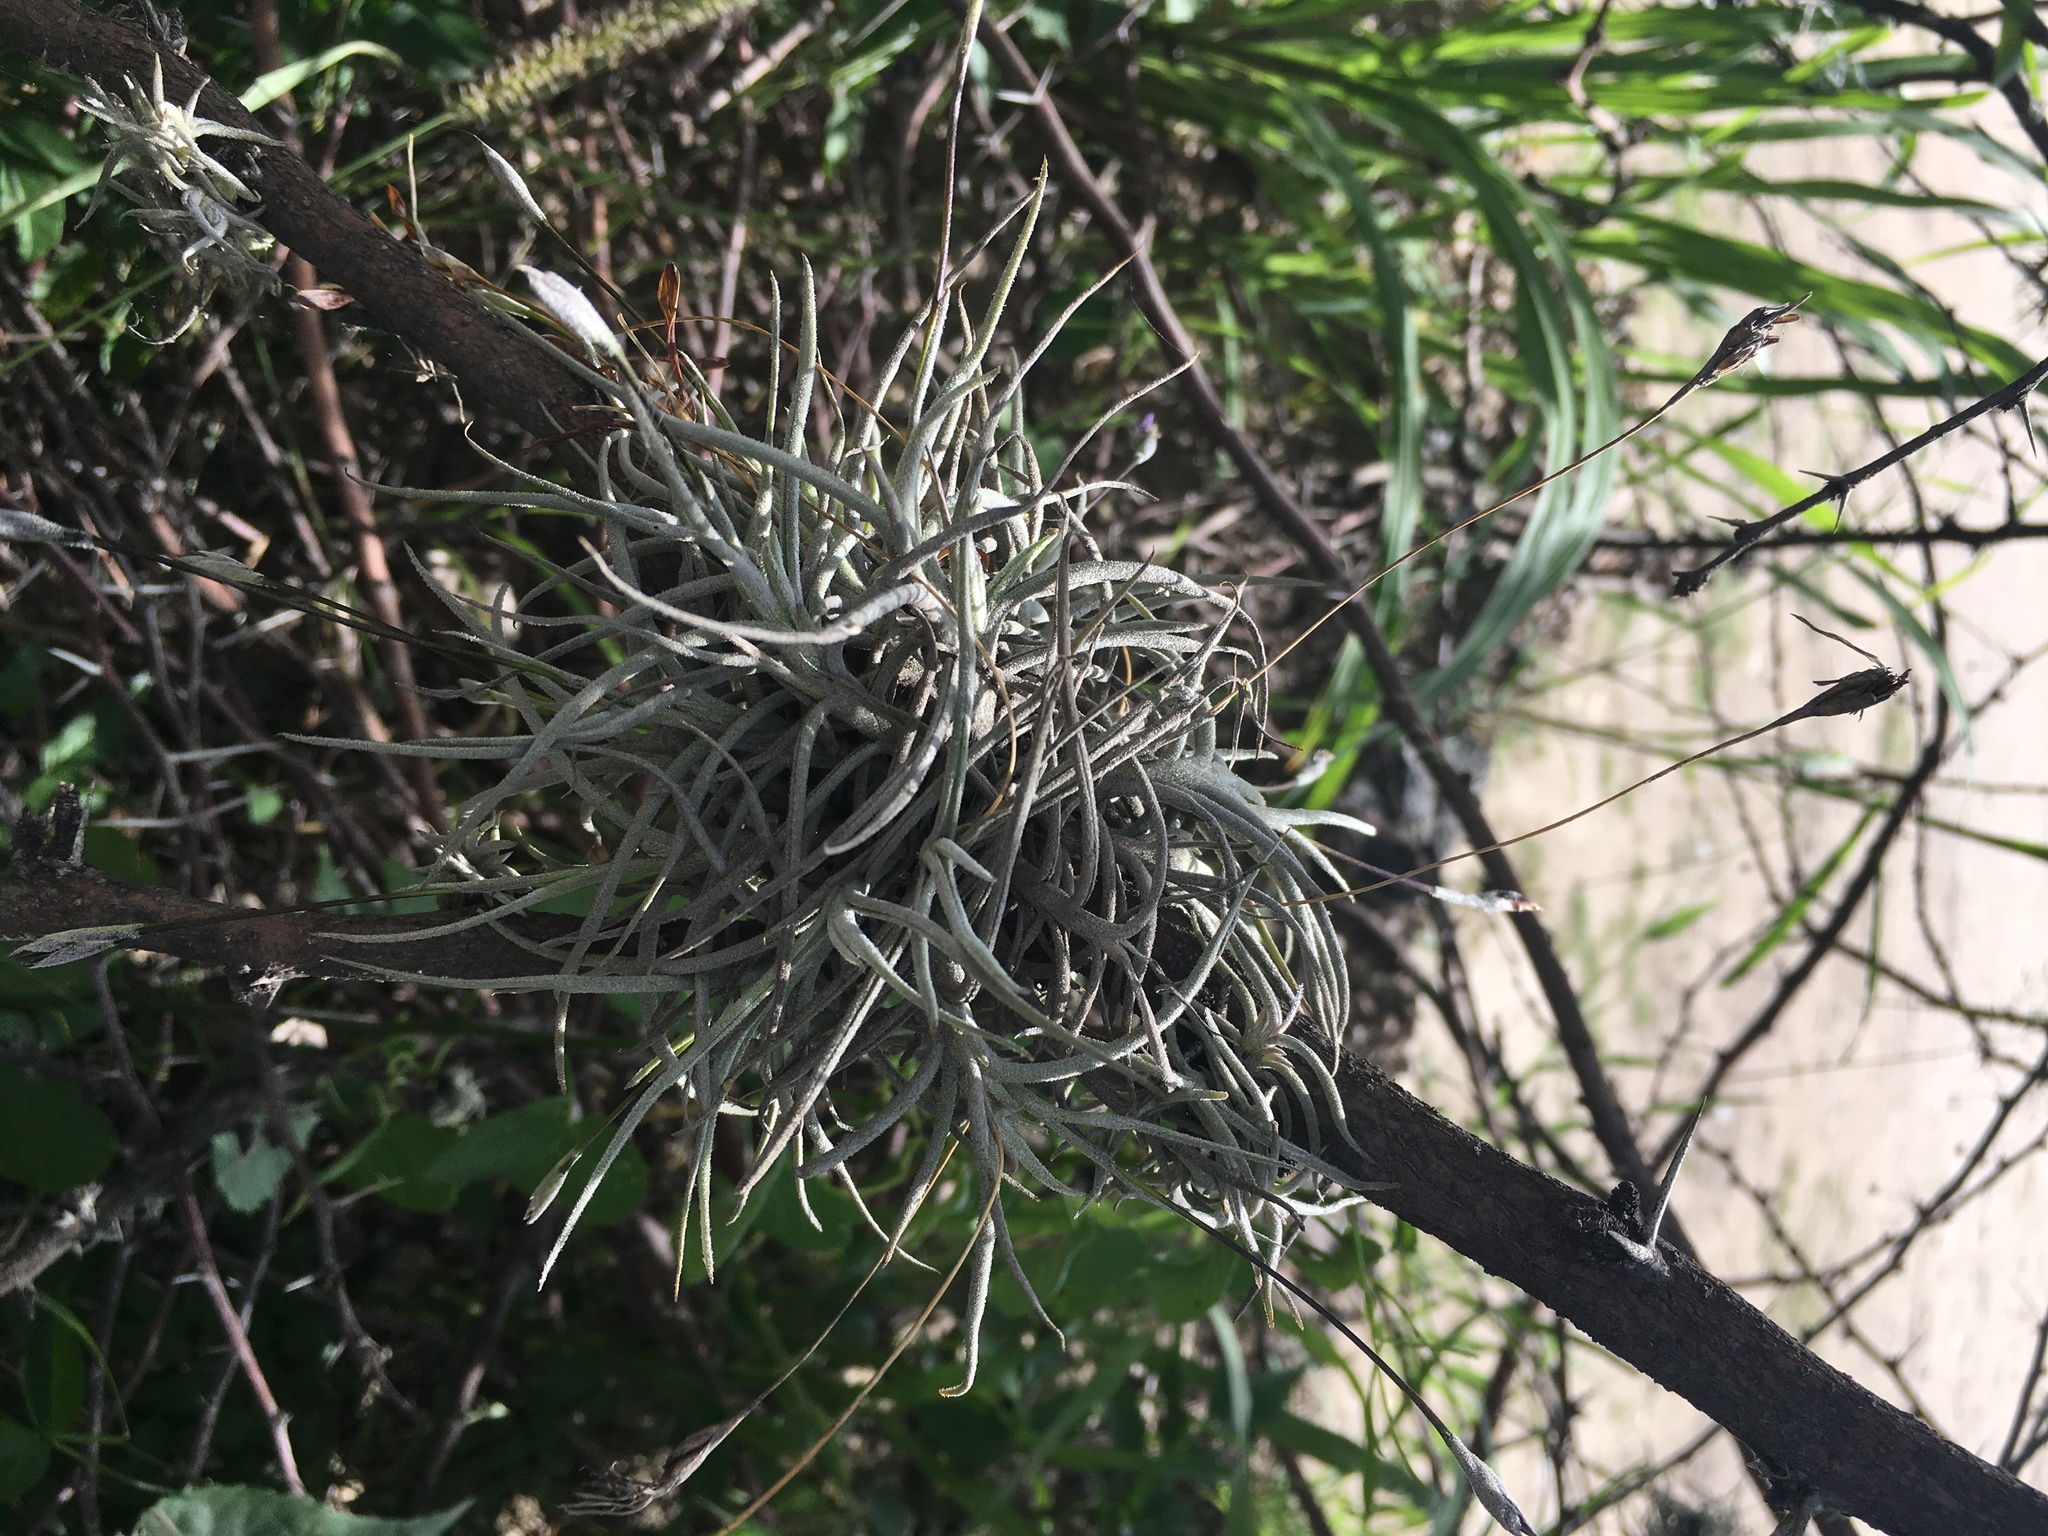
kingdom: Plantae
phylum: Tracheophyta
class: Liliopsida
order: Poales
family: Bromeliaceae
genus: Tillandsia
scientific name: Tillandsia recurvata
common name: Small ballmoss
